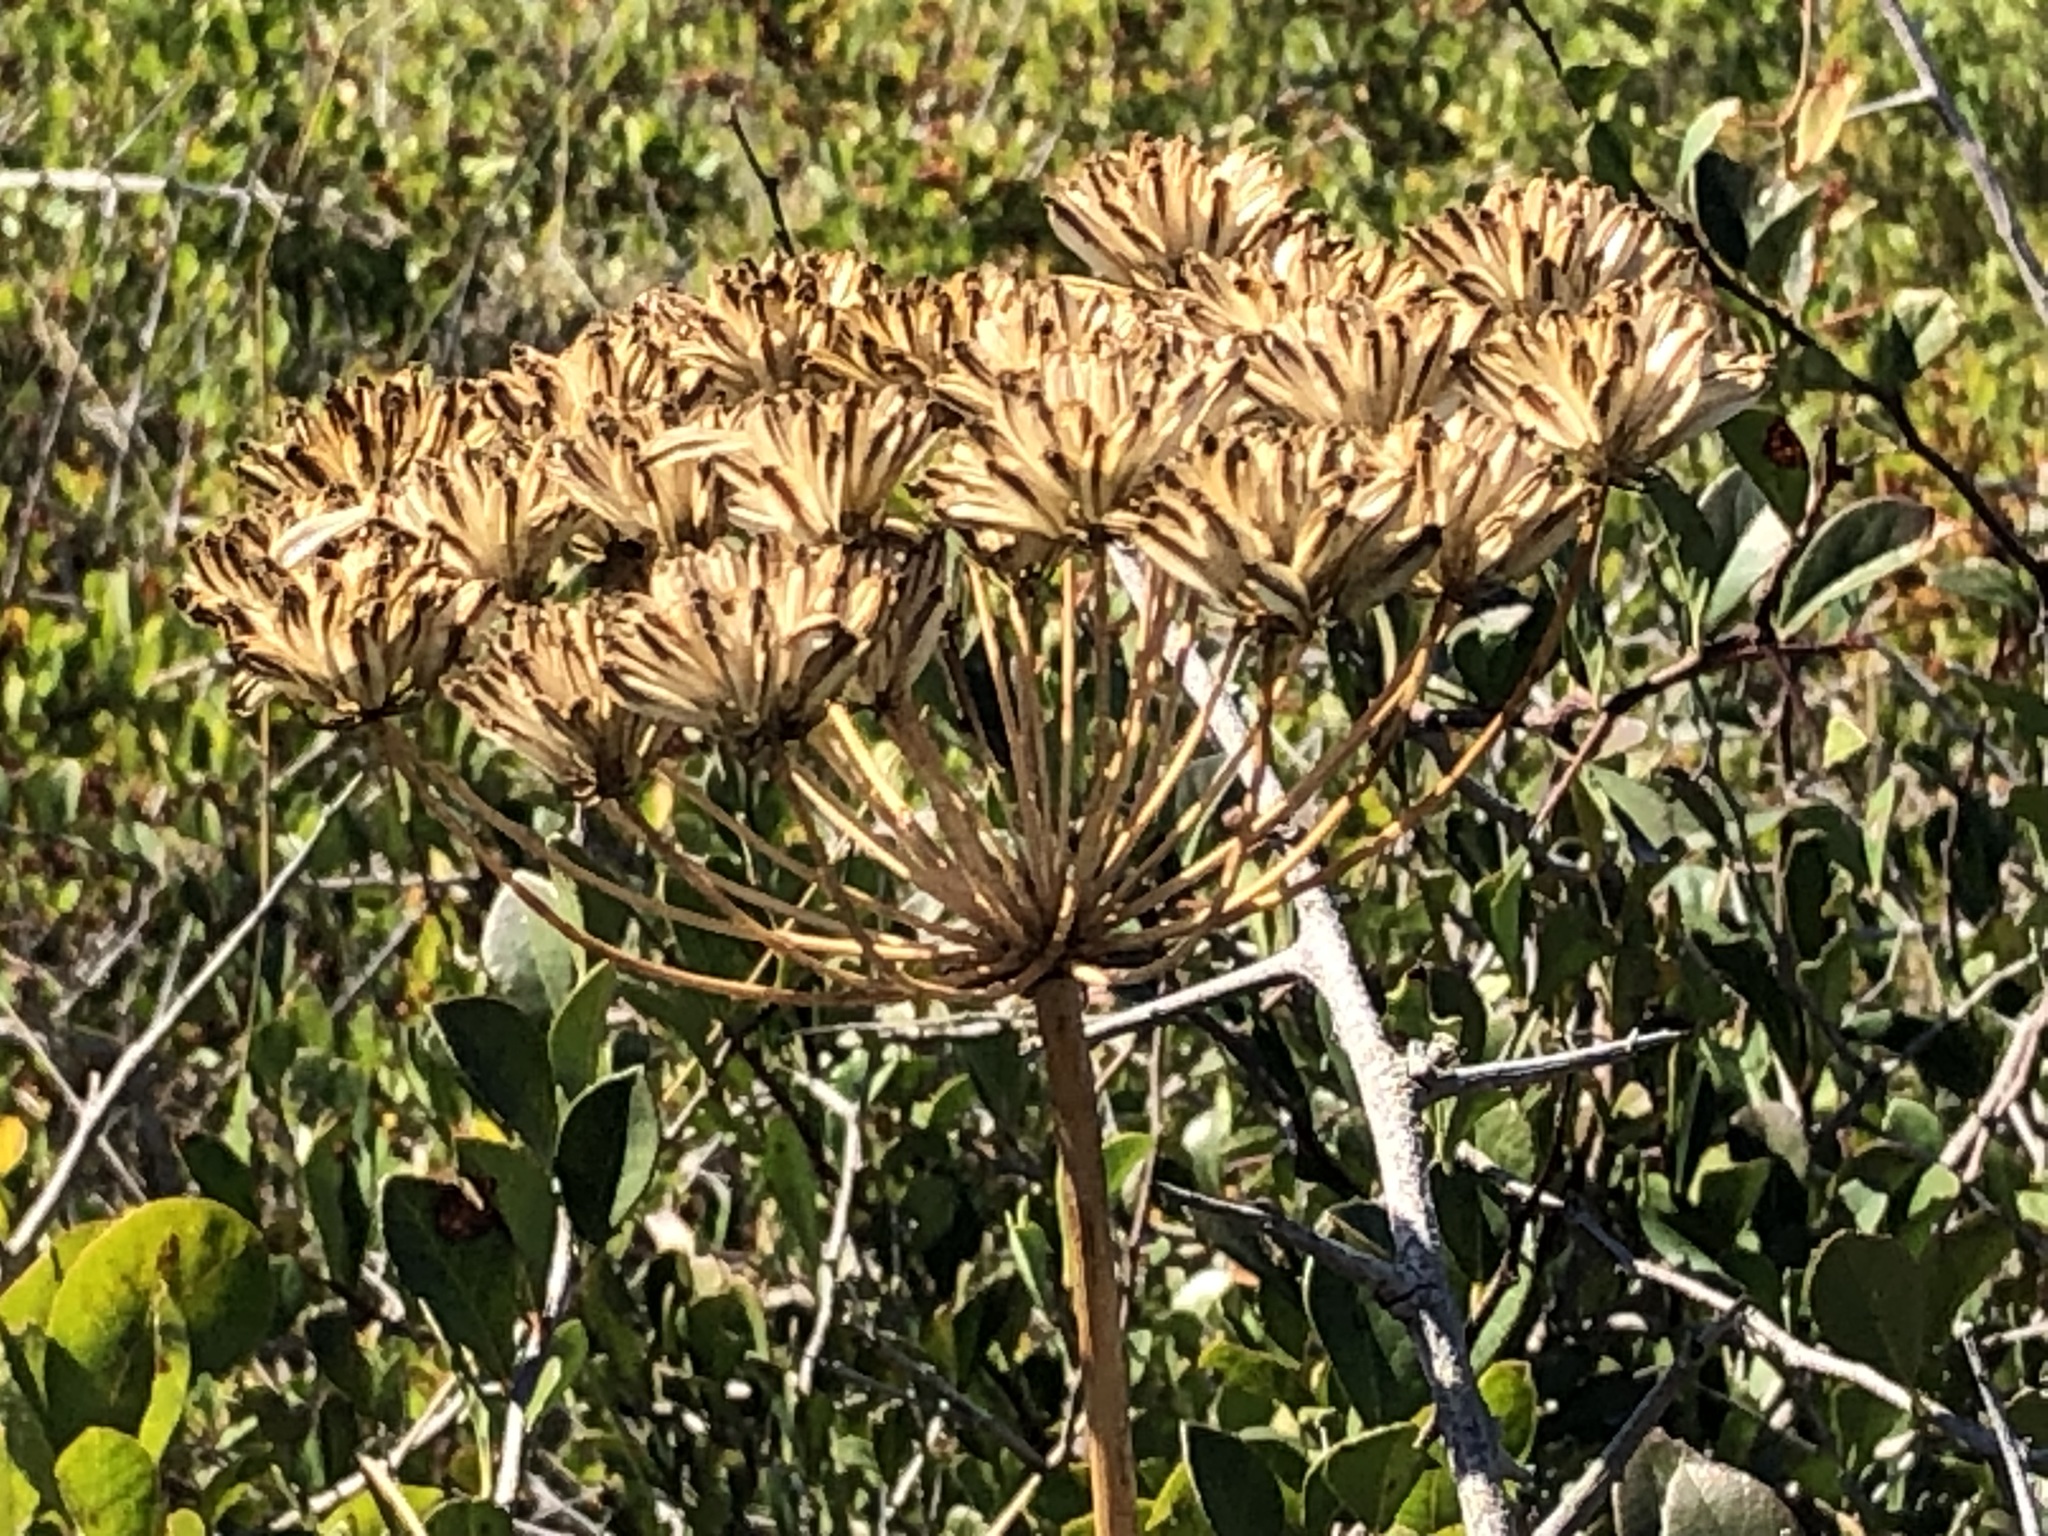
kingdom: Plantae
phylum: Tracheophyta
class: Magnoliopsida
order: Apiales
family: Apiaceae
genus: Annesorhiza
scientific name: Annesorhiza macrocarpa
